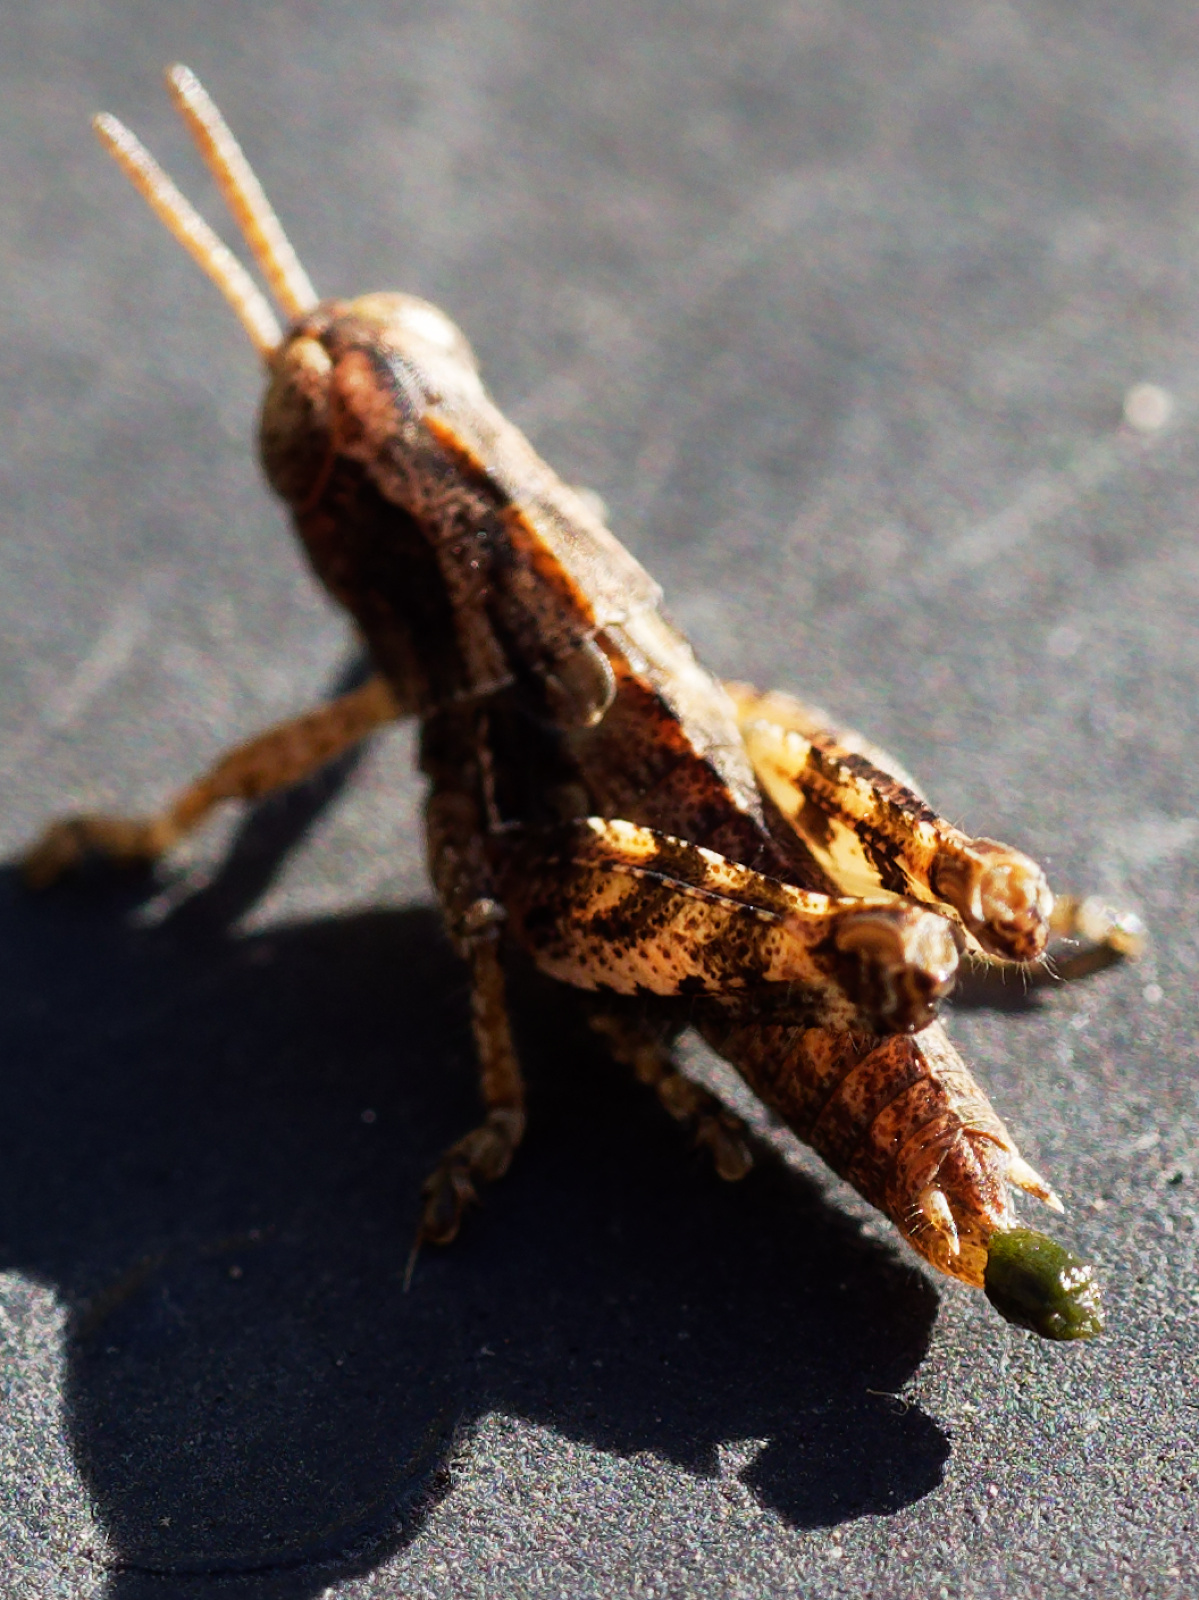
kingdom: Animalia
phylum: Arthropoda
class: Insecta
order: Orthoptera
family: Acrididae
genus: Pezotettix
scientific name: Pezotettix giornae
